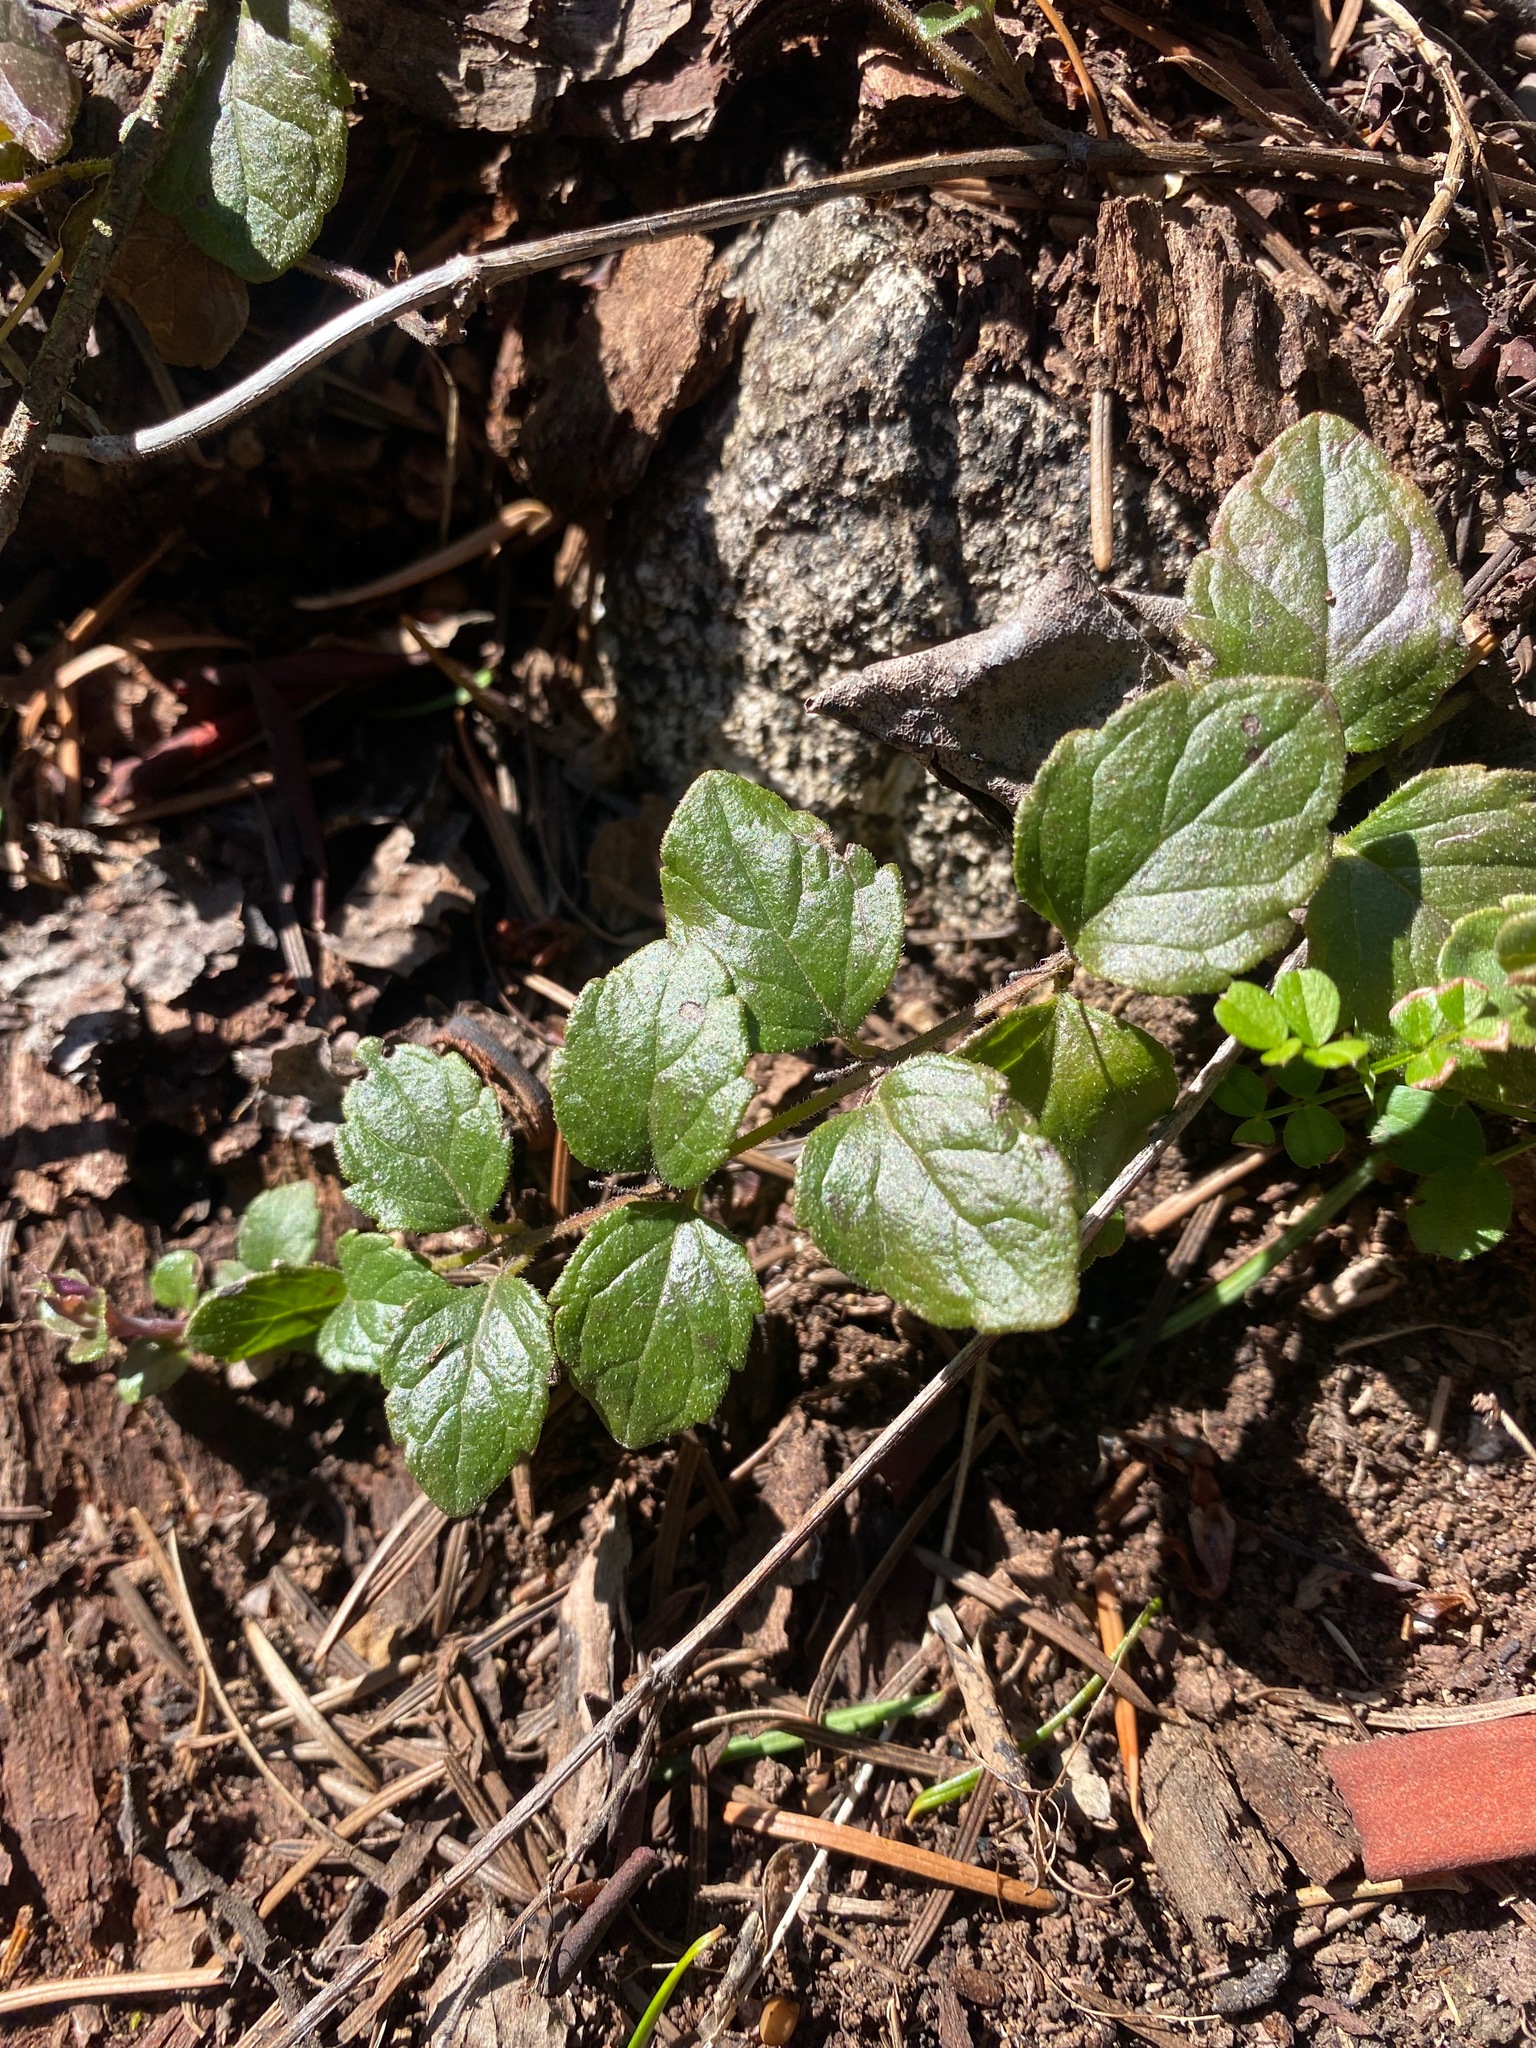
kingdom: Plantae
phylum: Tracheophyta
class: Magnoliopsida
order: Lamiales
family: Lamiaceae
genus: Micromeria
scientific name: Micromeria douglasii
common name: Yerba buena
